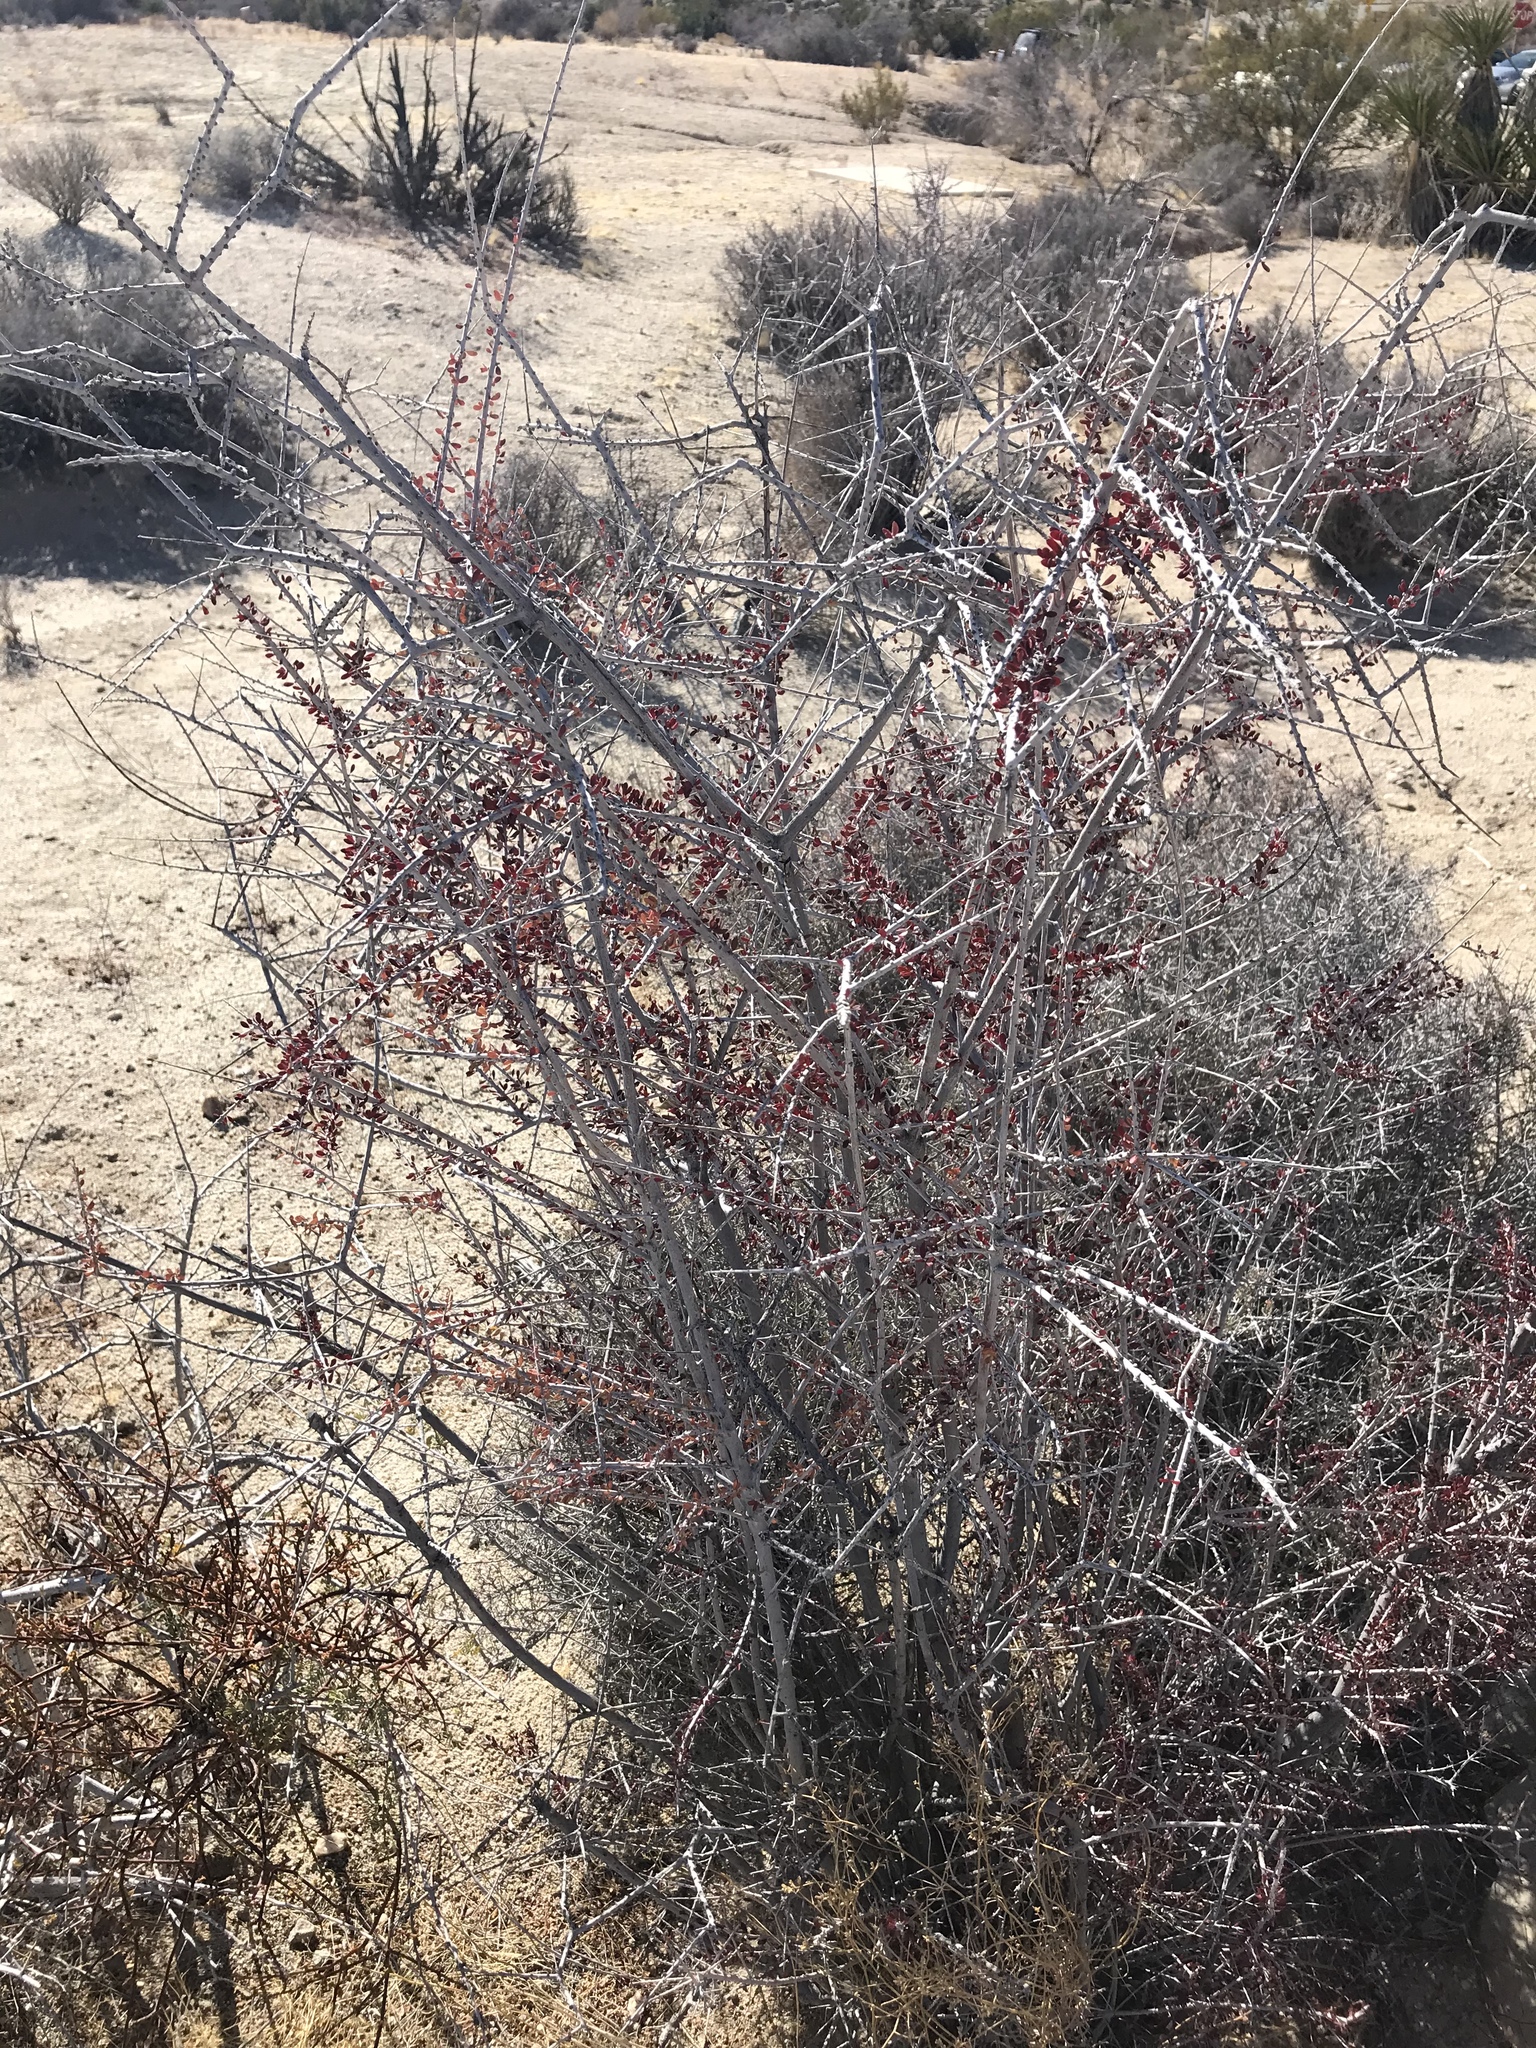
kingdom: Plantae
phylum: Tracheophyta
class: Magnoliopsida
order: Malpighiales
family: Picrodendraceae
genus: Tetracoccus
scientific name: Tetracoccus hallii
